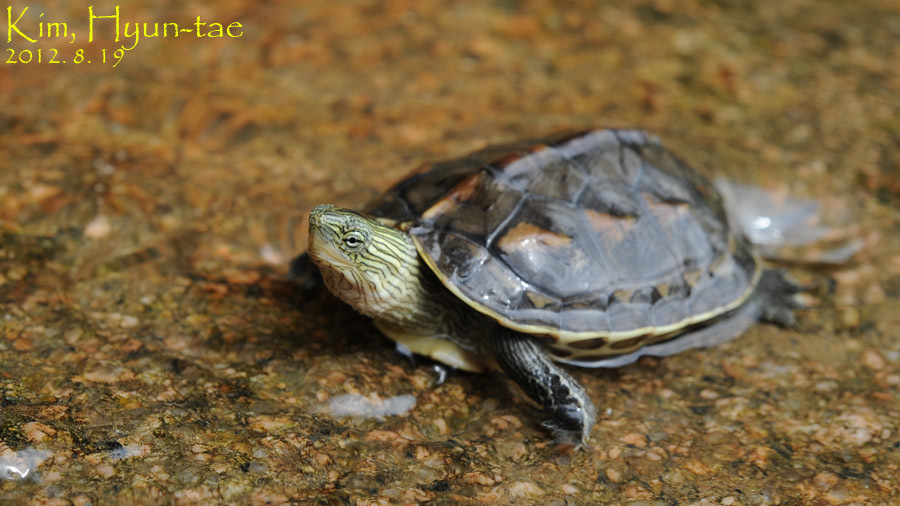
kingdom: Animalia
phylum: Chordata
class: Testudines
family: Geoemydidae
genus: Mauremys
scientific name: Mauremys sinensis
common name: Chinese stripe-necked turtle
